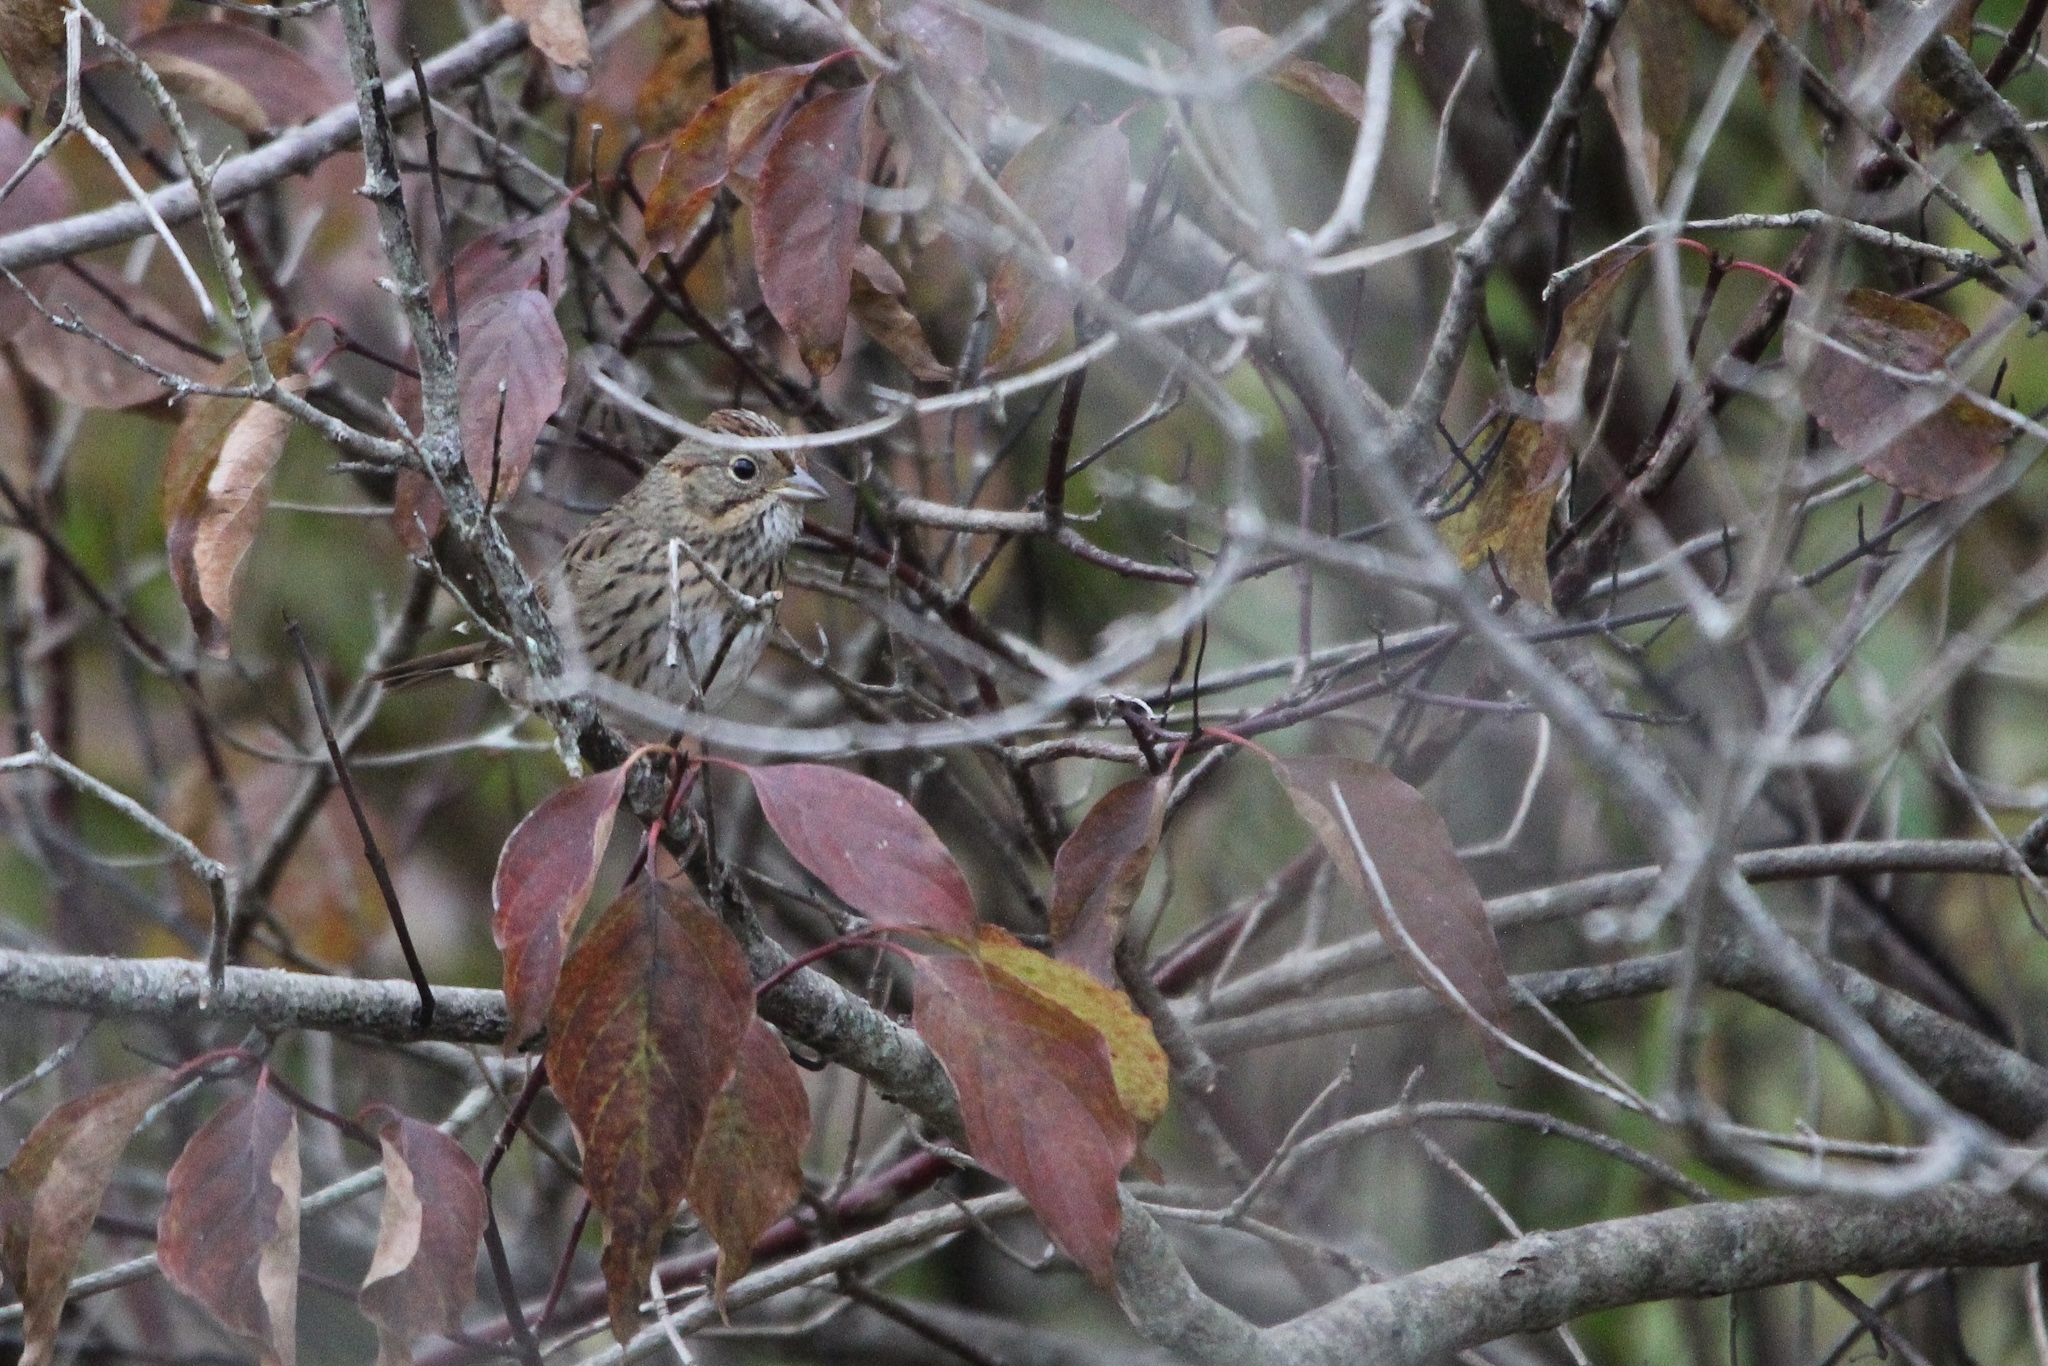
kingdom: Animalia
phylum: Chordata
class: Aves
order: Passeriformes
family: Passerellidae
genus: Melospiza
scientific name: Melospiza lincolnii
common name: Lincoln's sparrow
